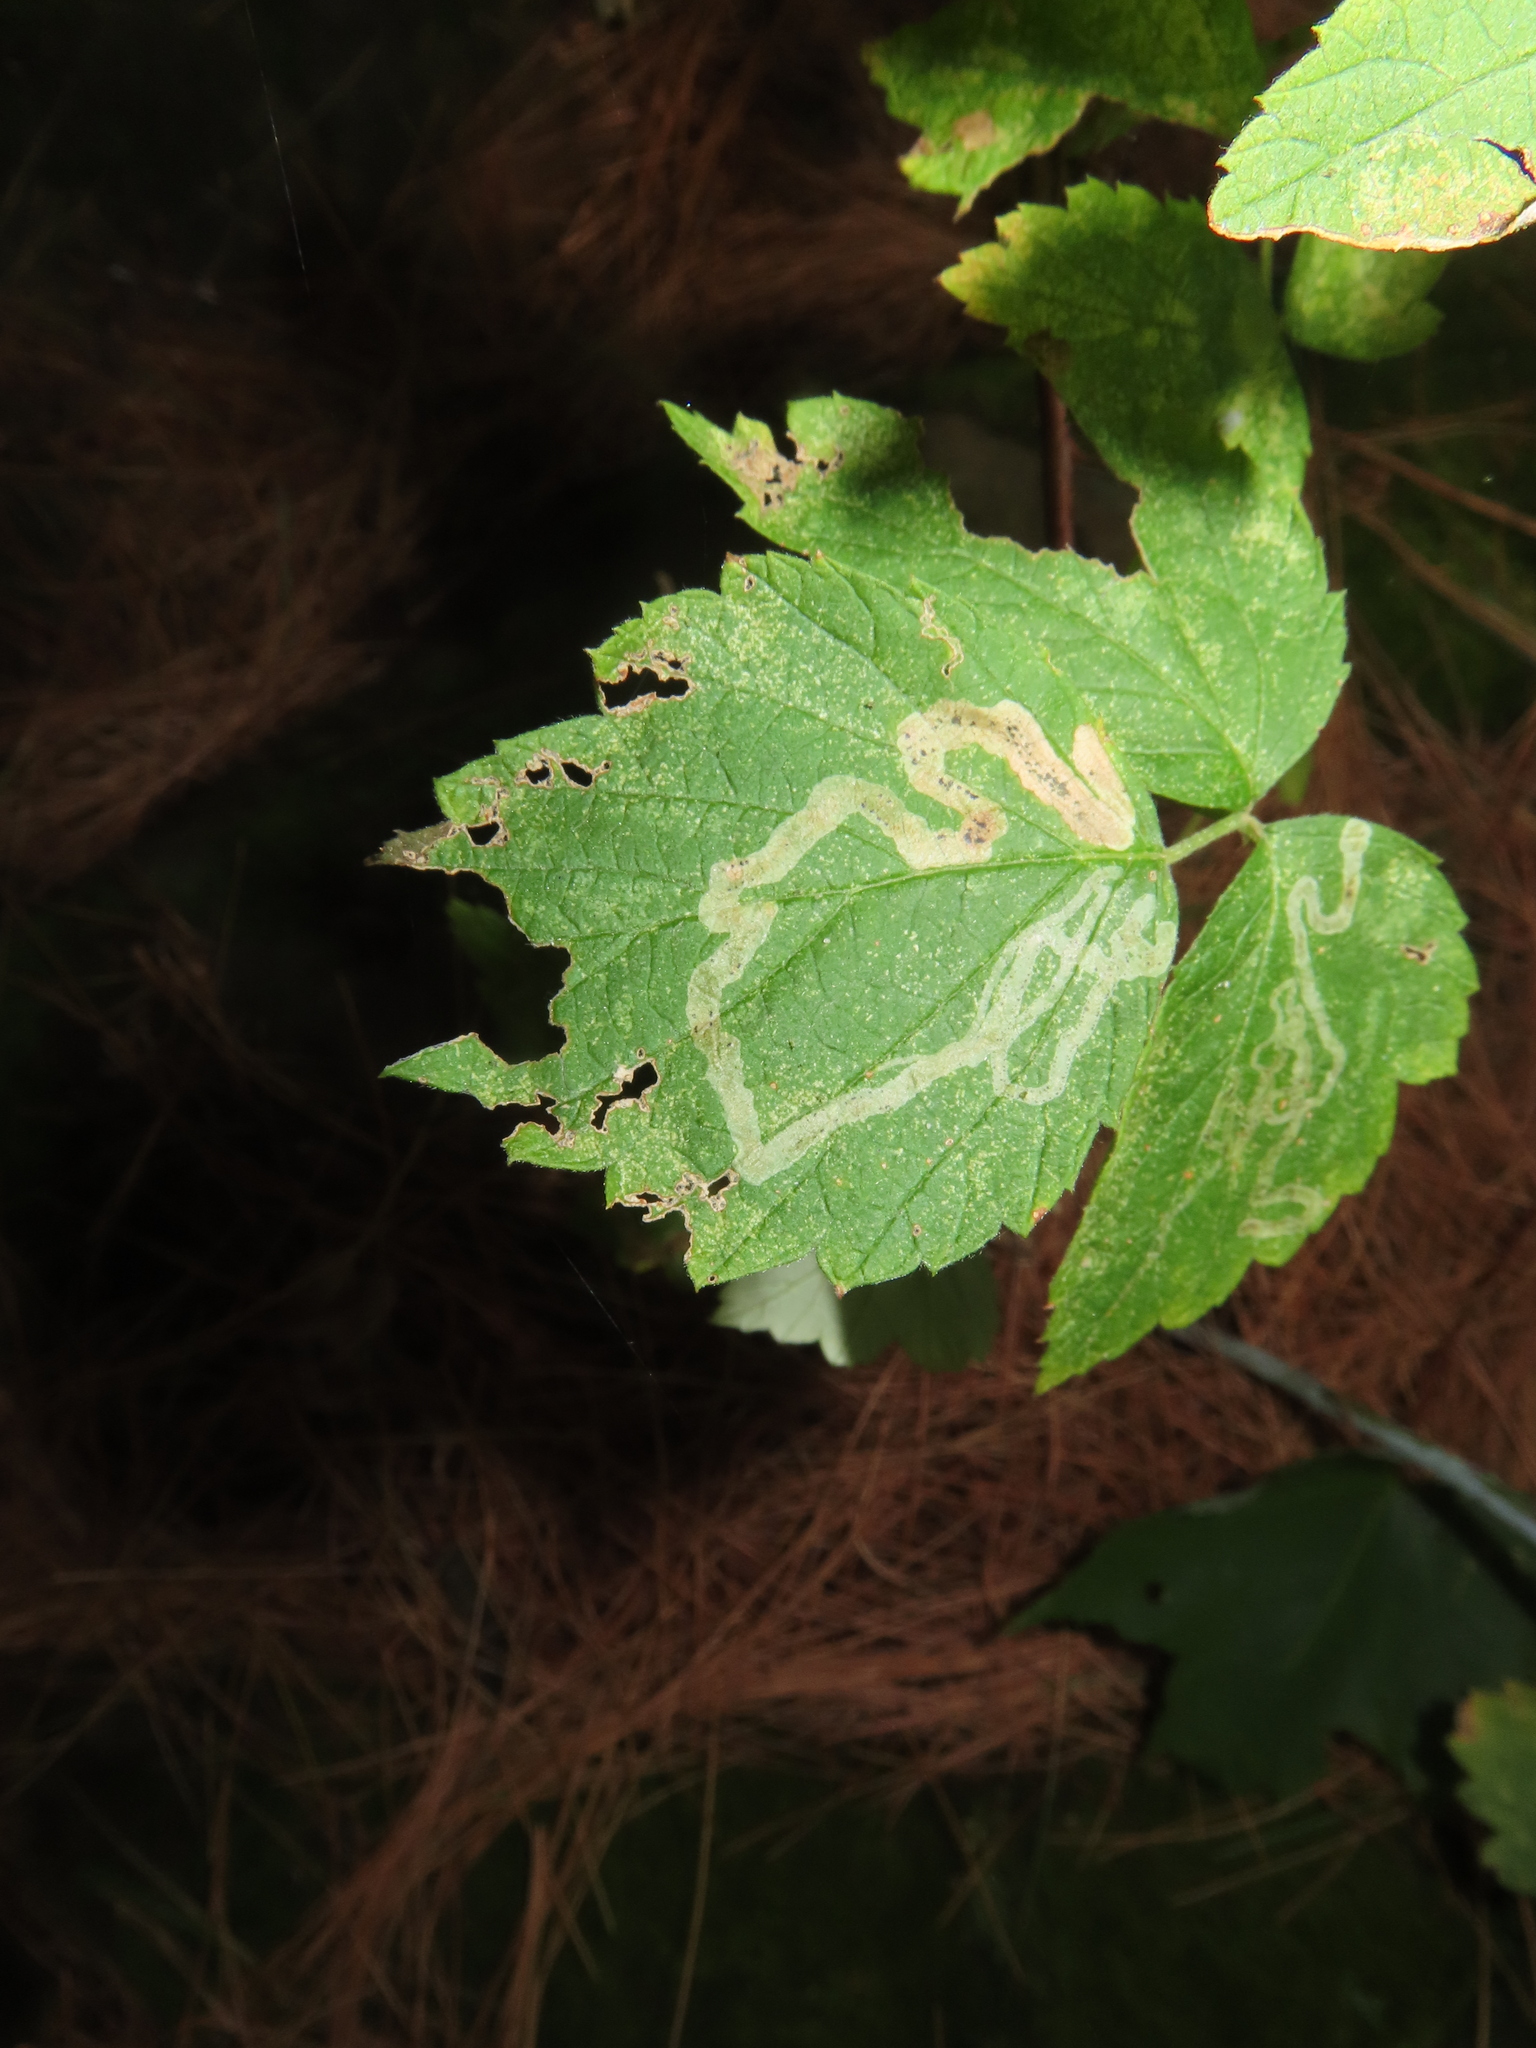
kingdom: Animalia
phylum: Arthropoda
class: Insecta
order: Diptera
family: Agromyzidae
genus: Agromyza
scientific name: Agromyza vockerothi
